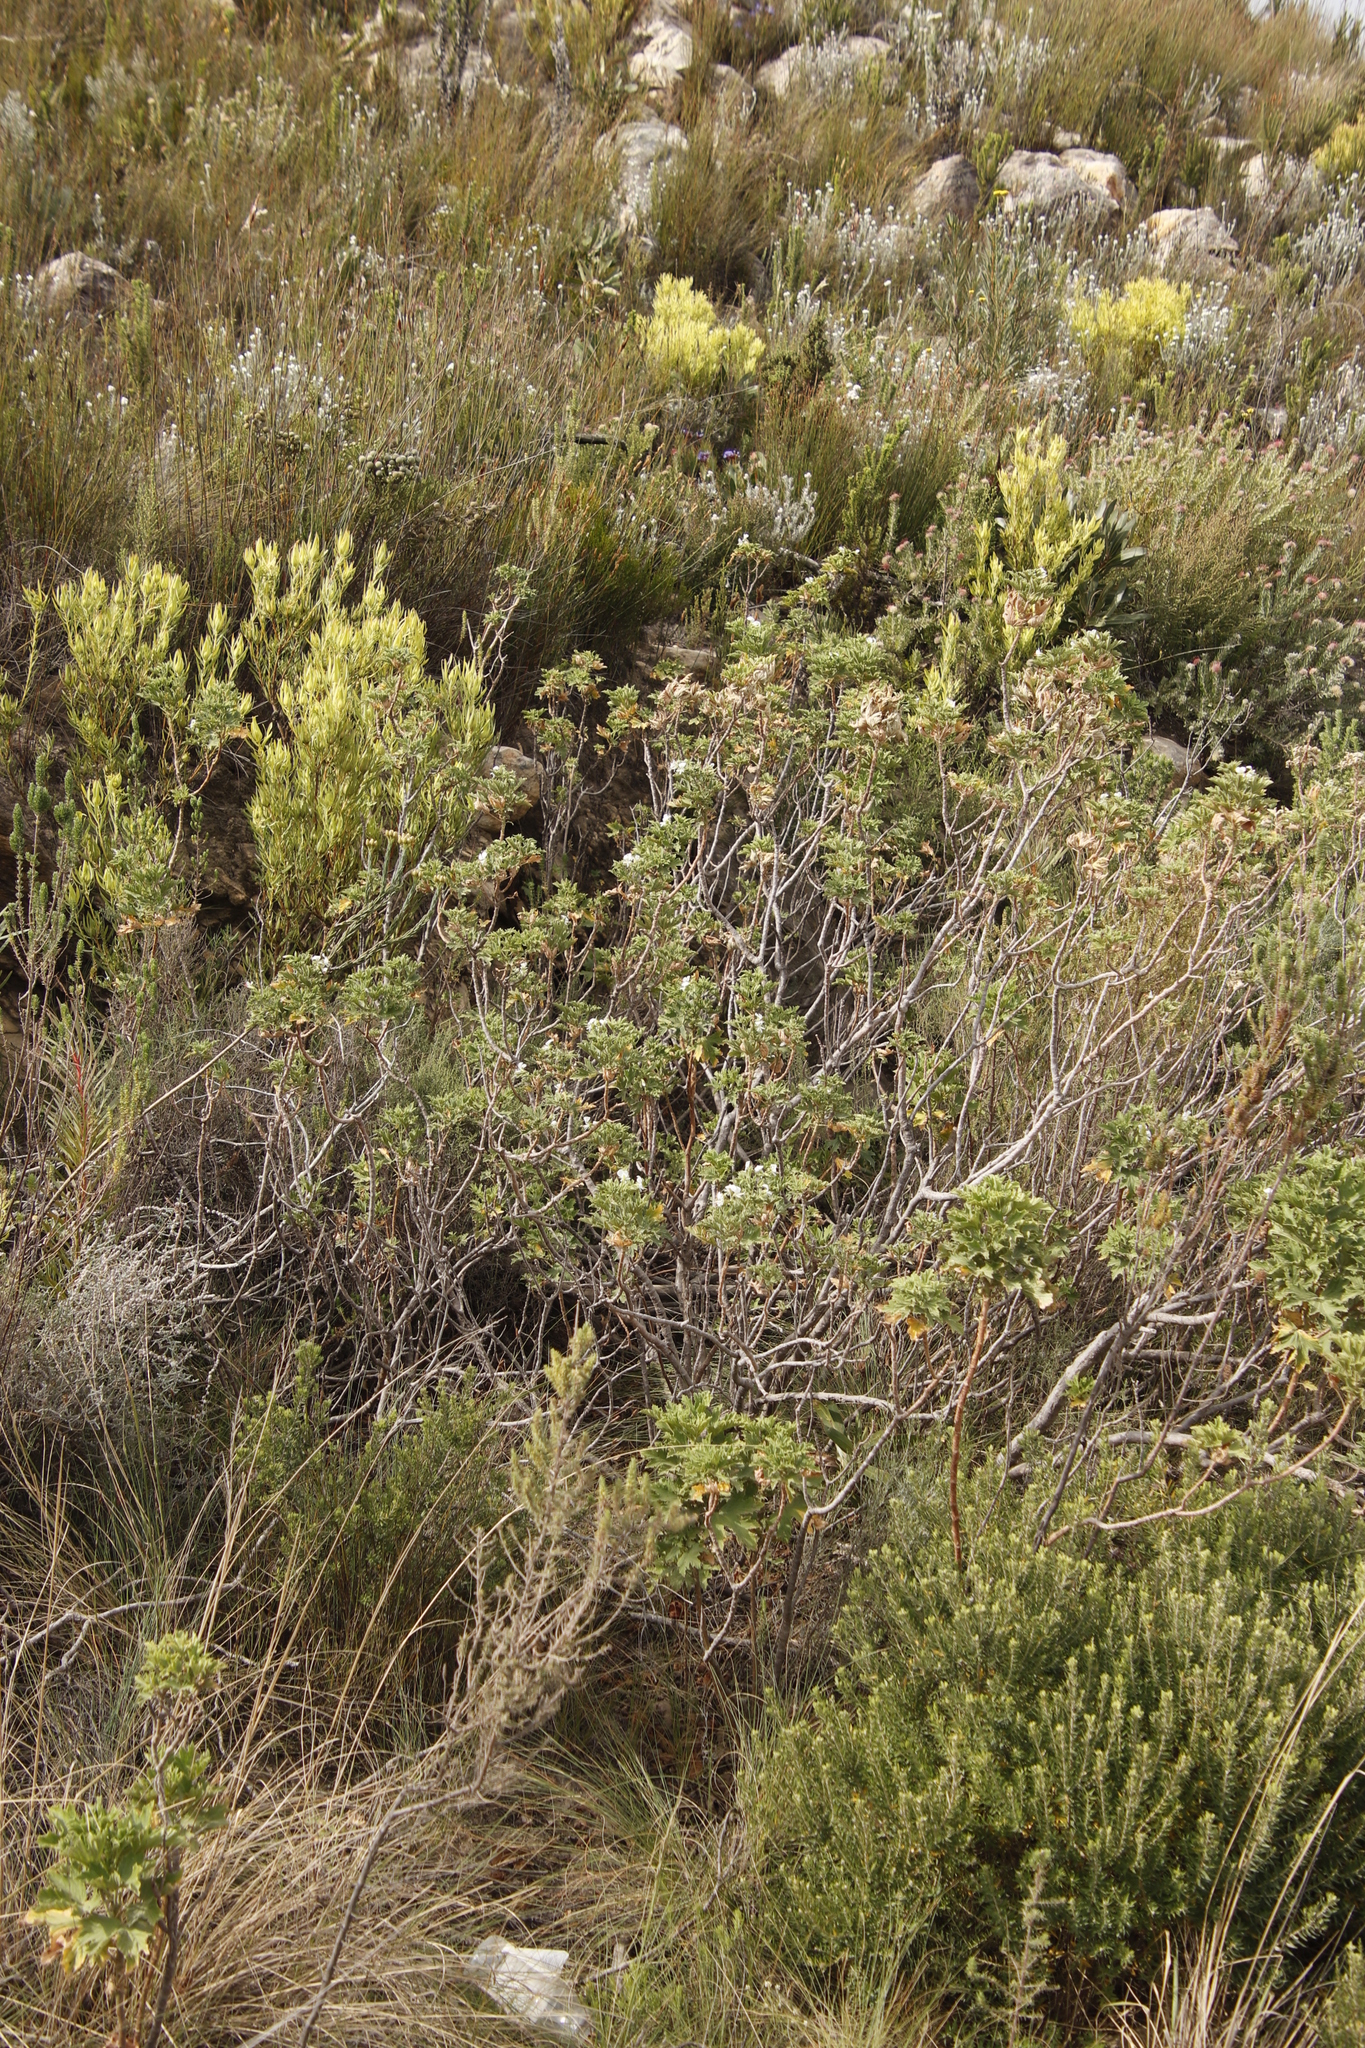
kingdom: Plantae
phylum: Tracheophyta
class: Magnoliopsida
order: Geraniales
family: Geraniaceae
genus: Pelargonium
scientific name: Pelargonium ribifolium
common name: Currant-leaf pelargonium
